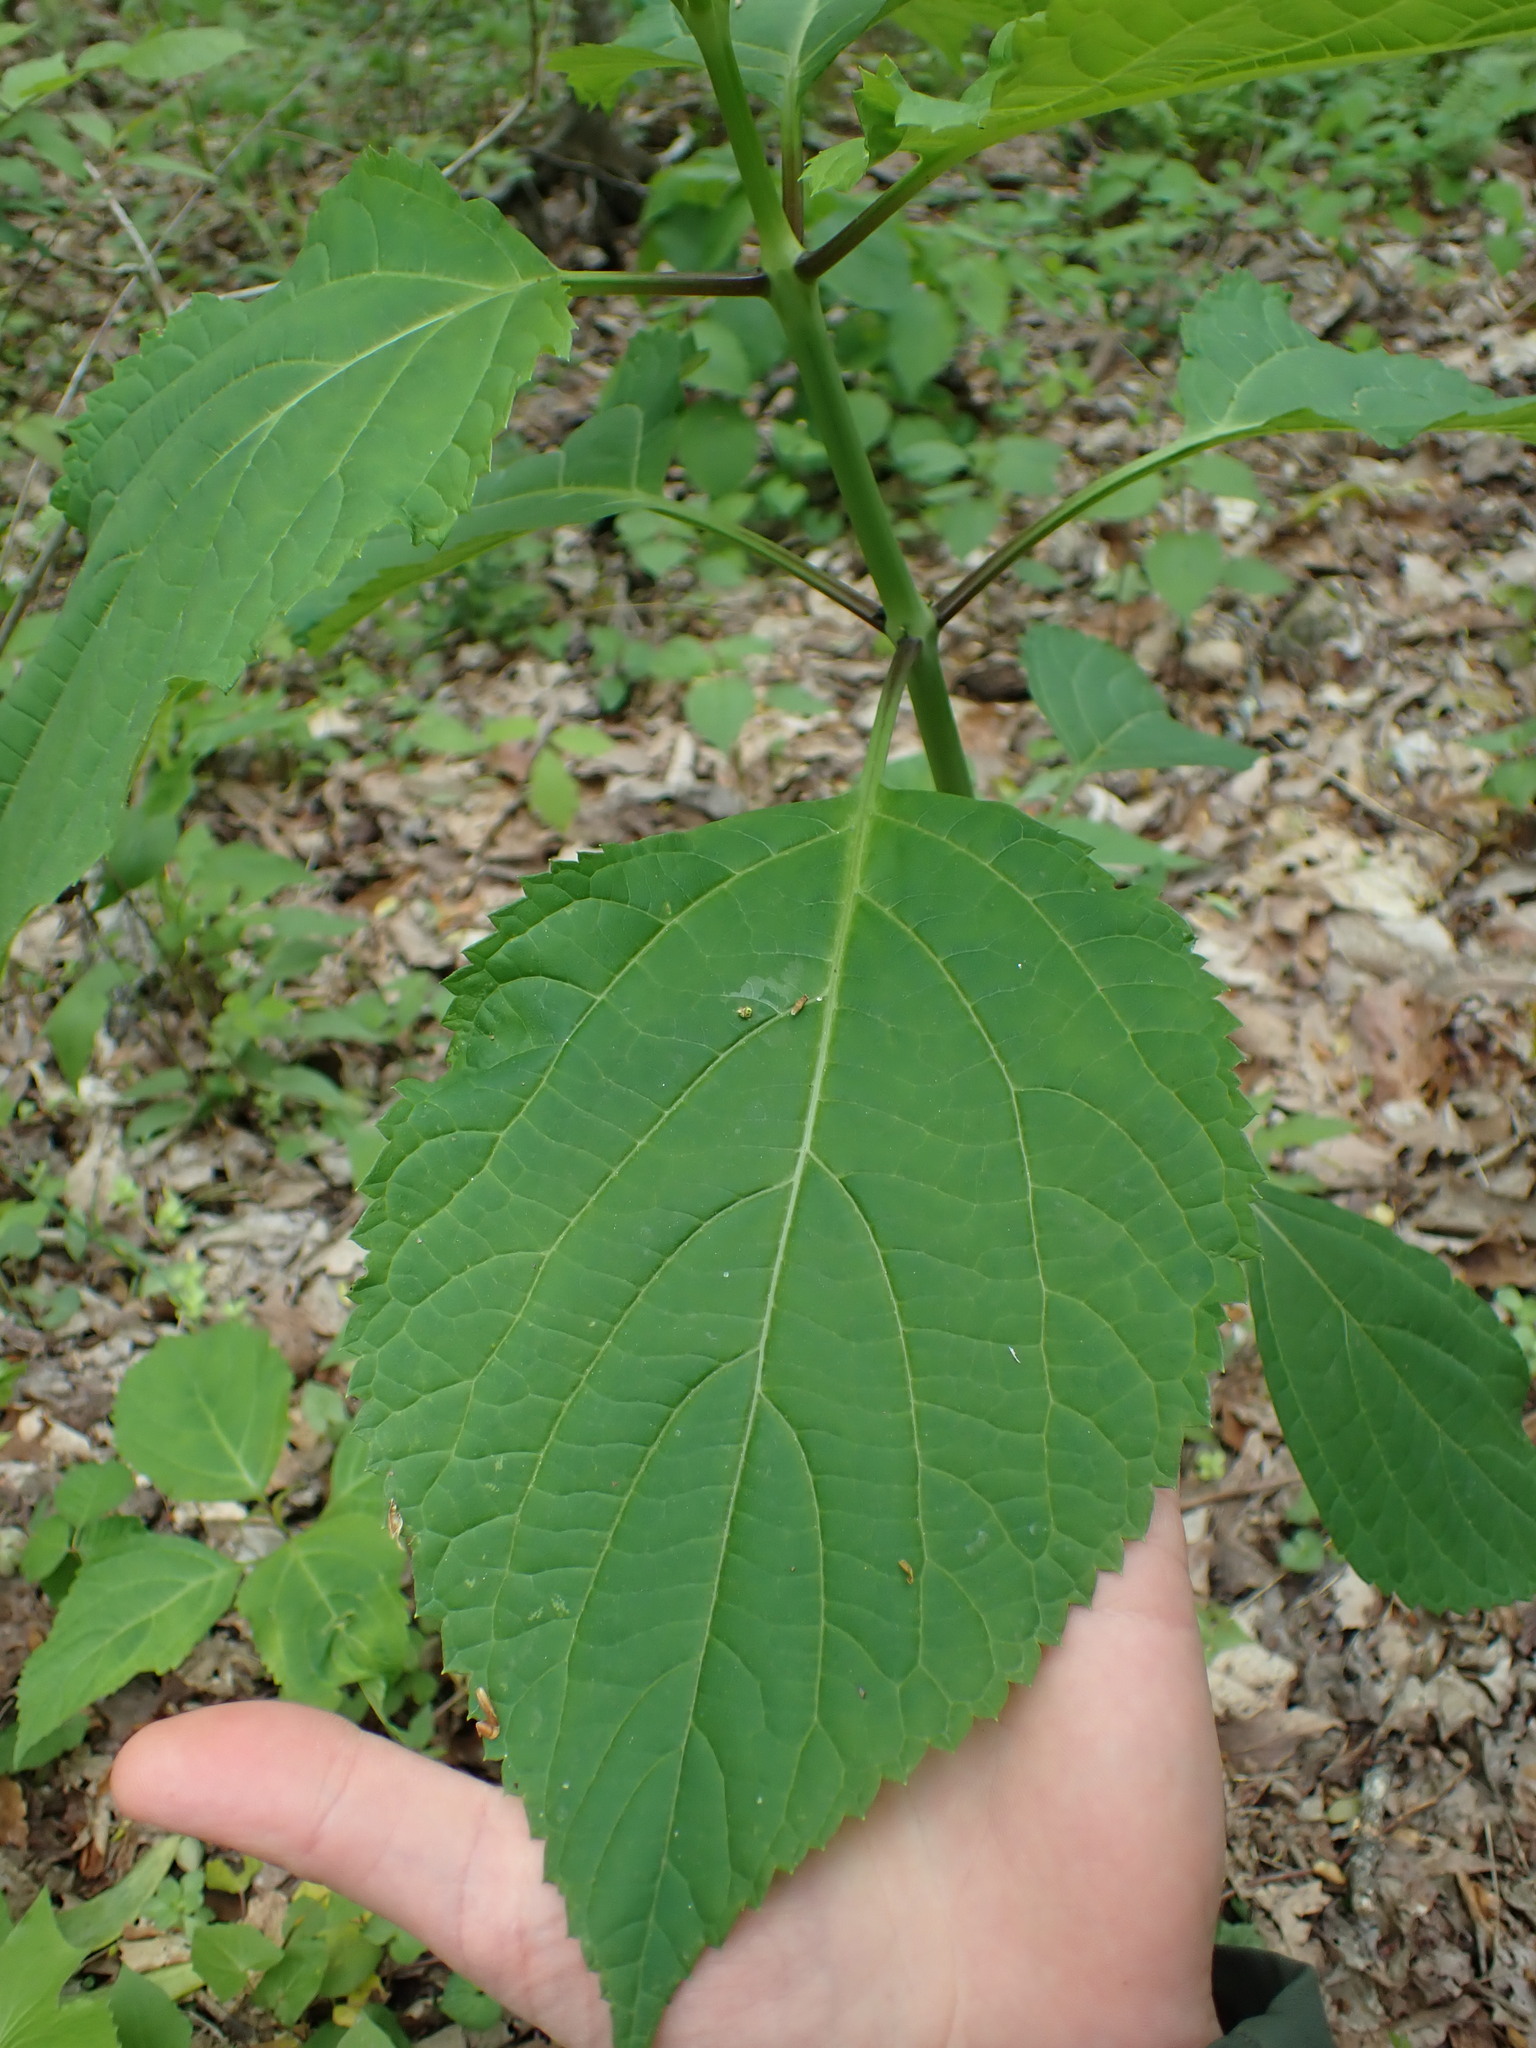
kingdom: Plantae
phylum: Tracheophyta
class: Magnoliopsida
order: Lamiales
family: Lamiaceae
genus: Collinsonia
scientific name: Collinsonia canadensis
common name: Northern horsebalm
